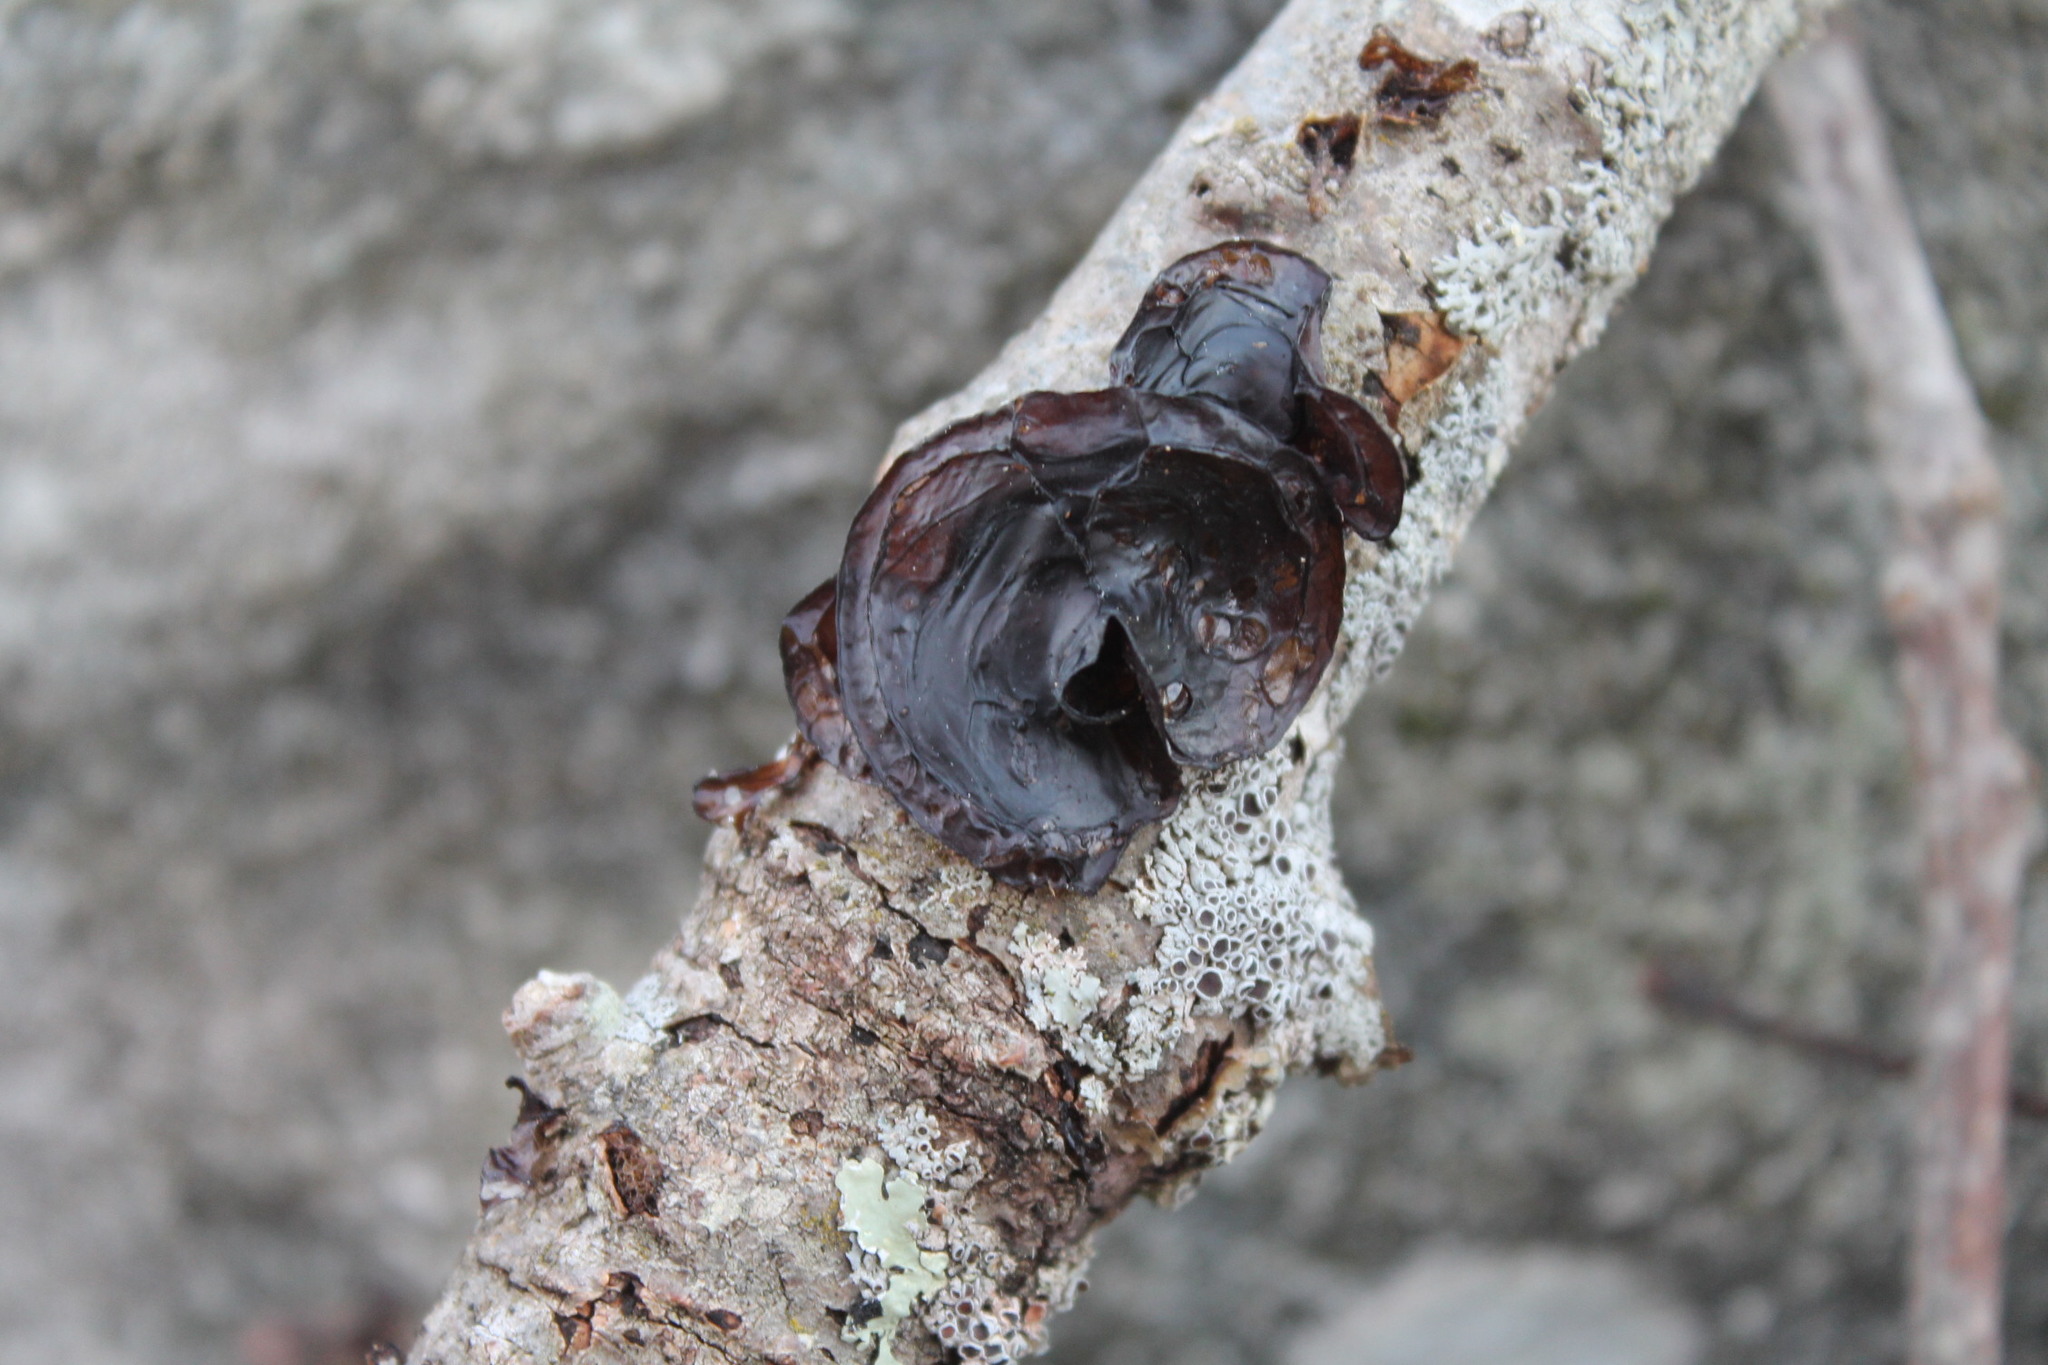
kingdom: Fungi
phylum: Basidiomycota
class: Agaricomycetes
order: Auriculariales
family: Auriculariaceae
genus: Exidia
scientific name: Exidia
